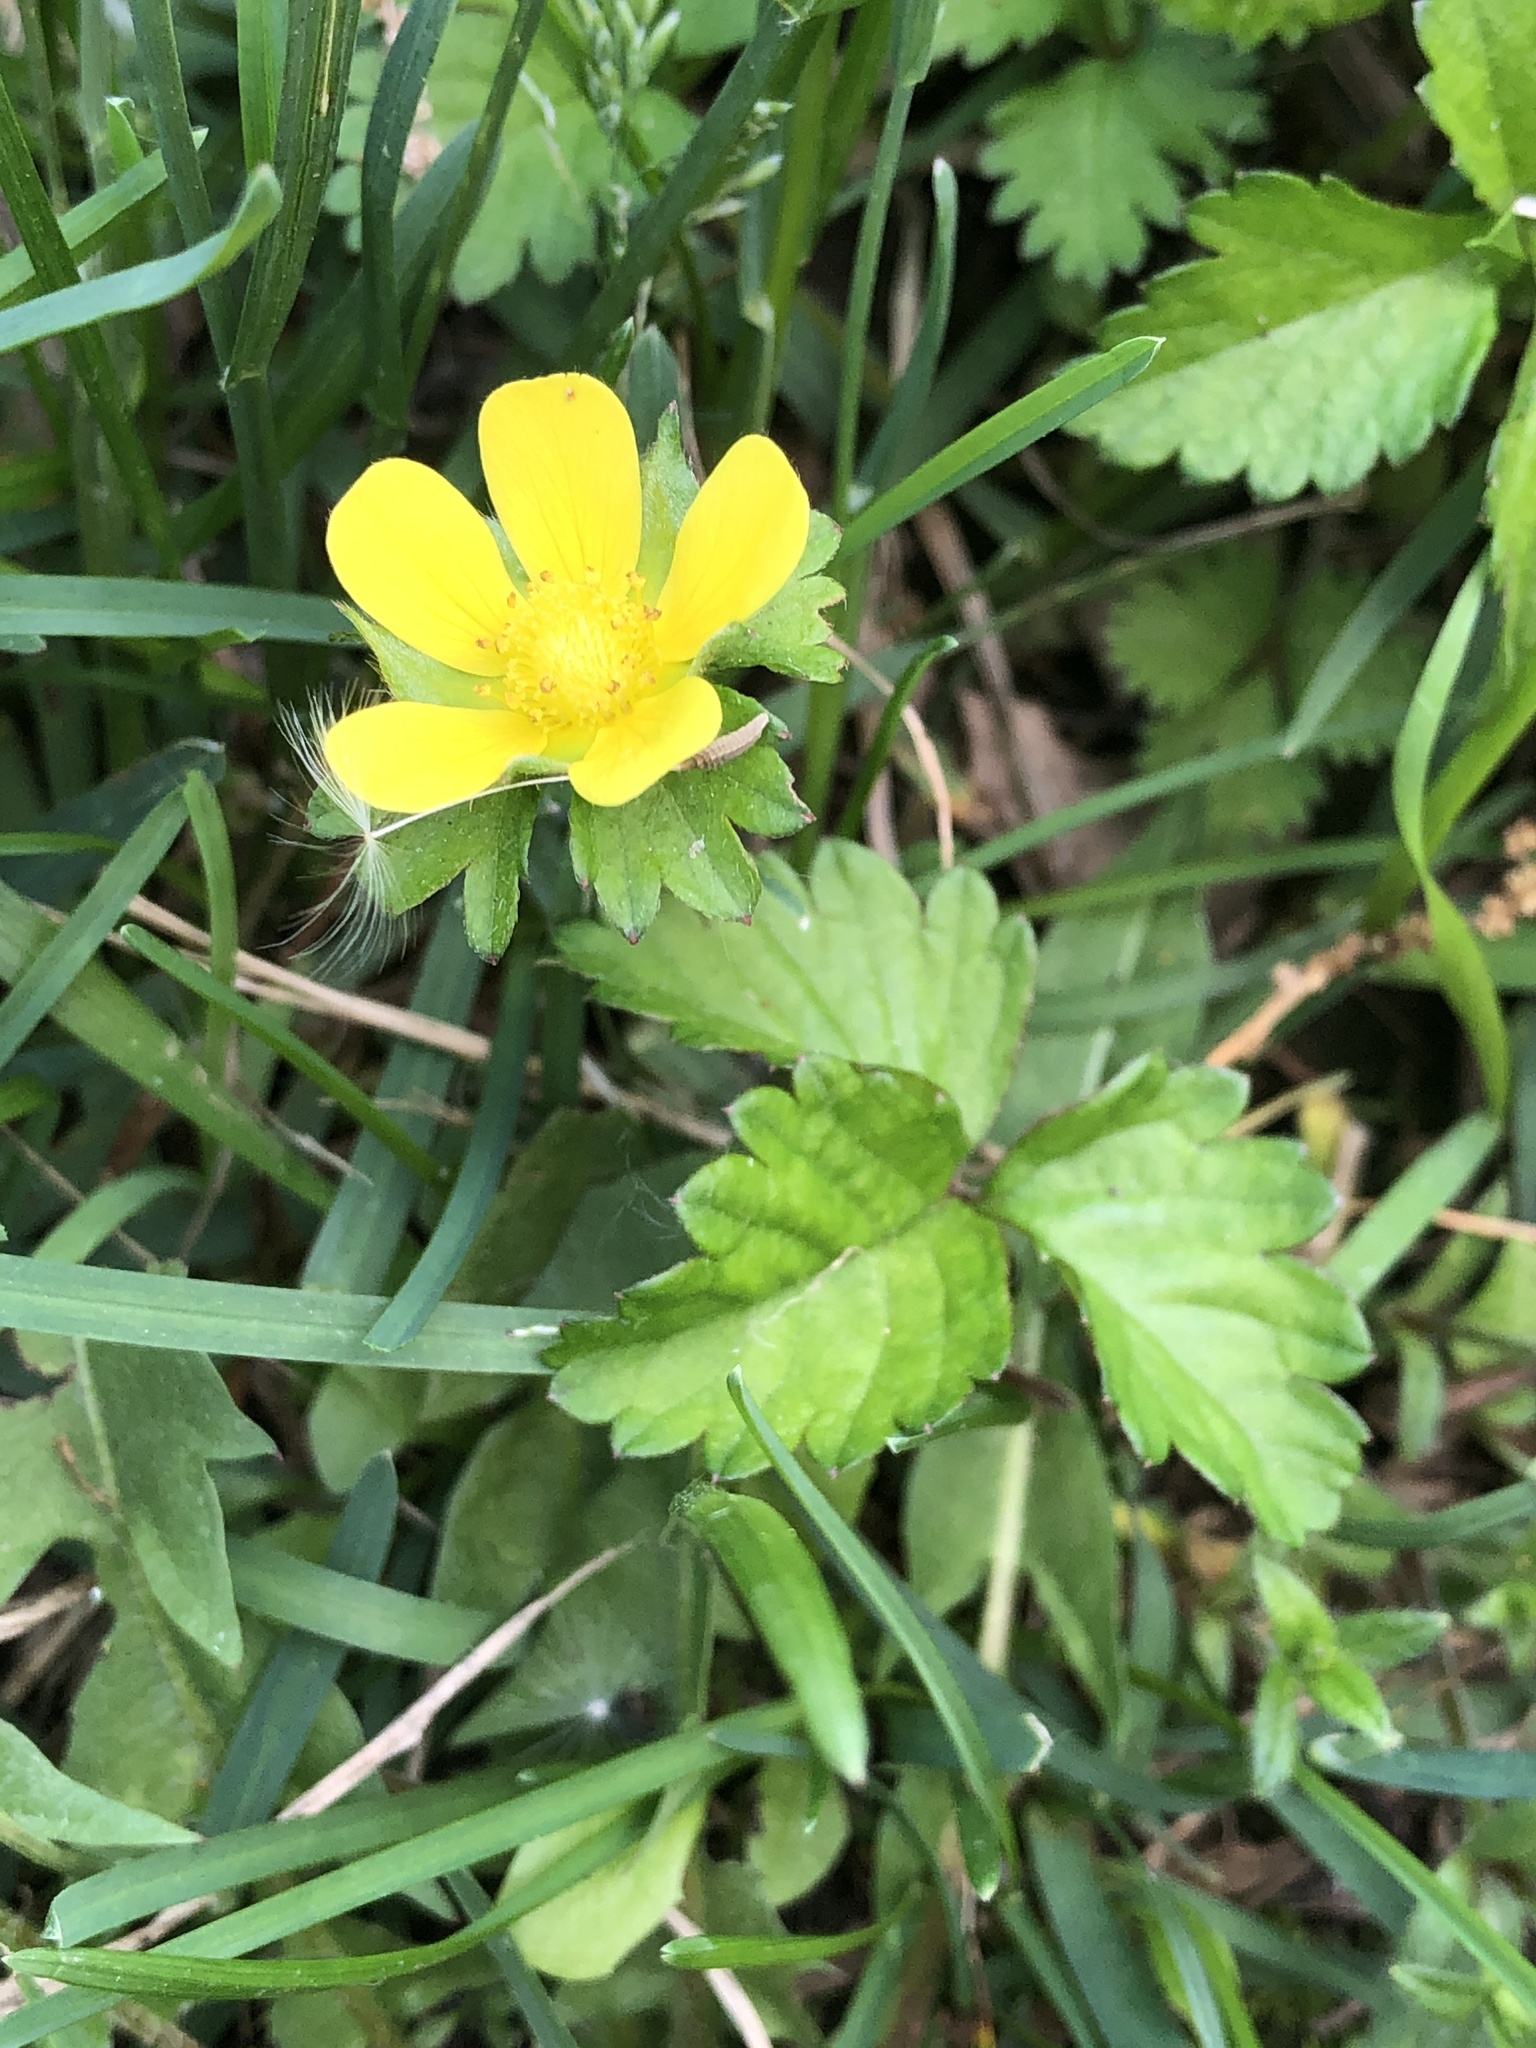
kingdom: Plantae
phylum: Tracheophyta
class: Magnoliopsida
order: Rosales
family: Rosaceae
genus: Potentilla
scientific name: Potentilla indica
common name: Yellow-flowered strawberry
